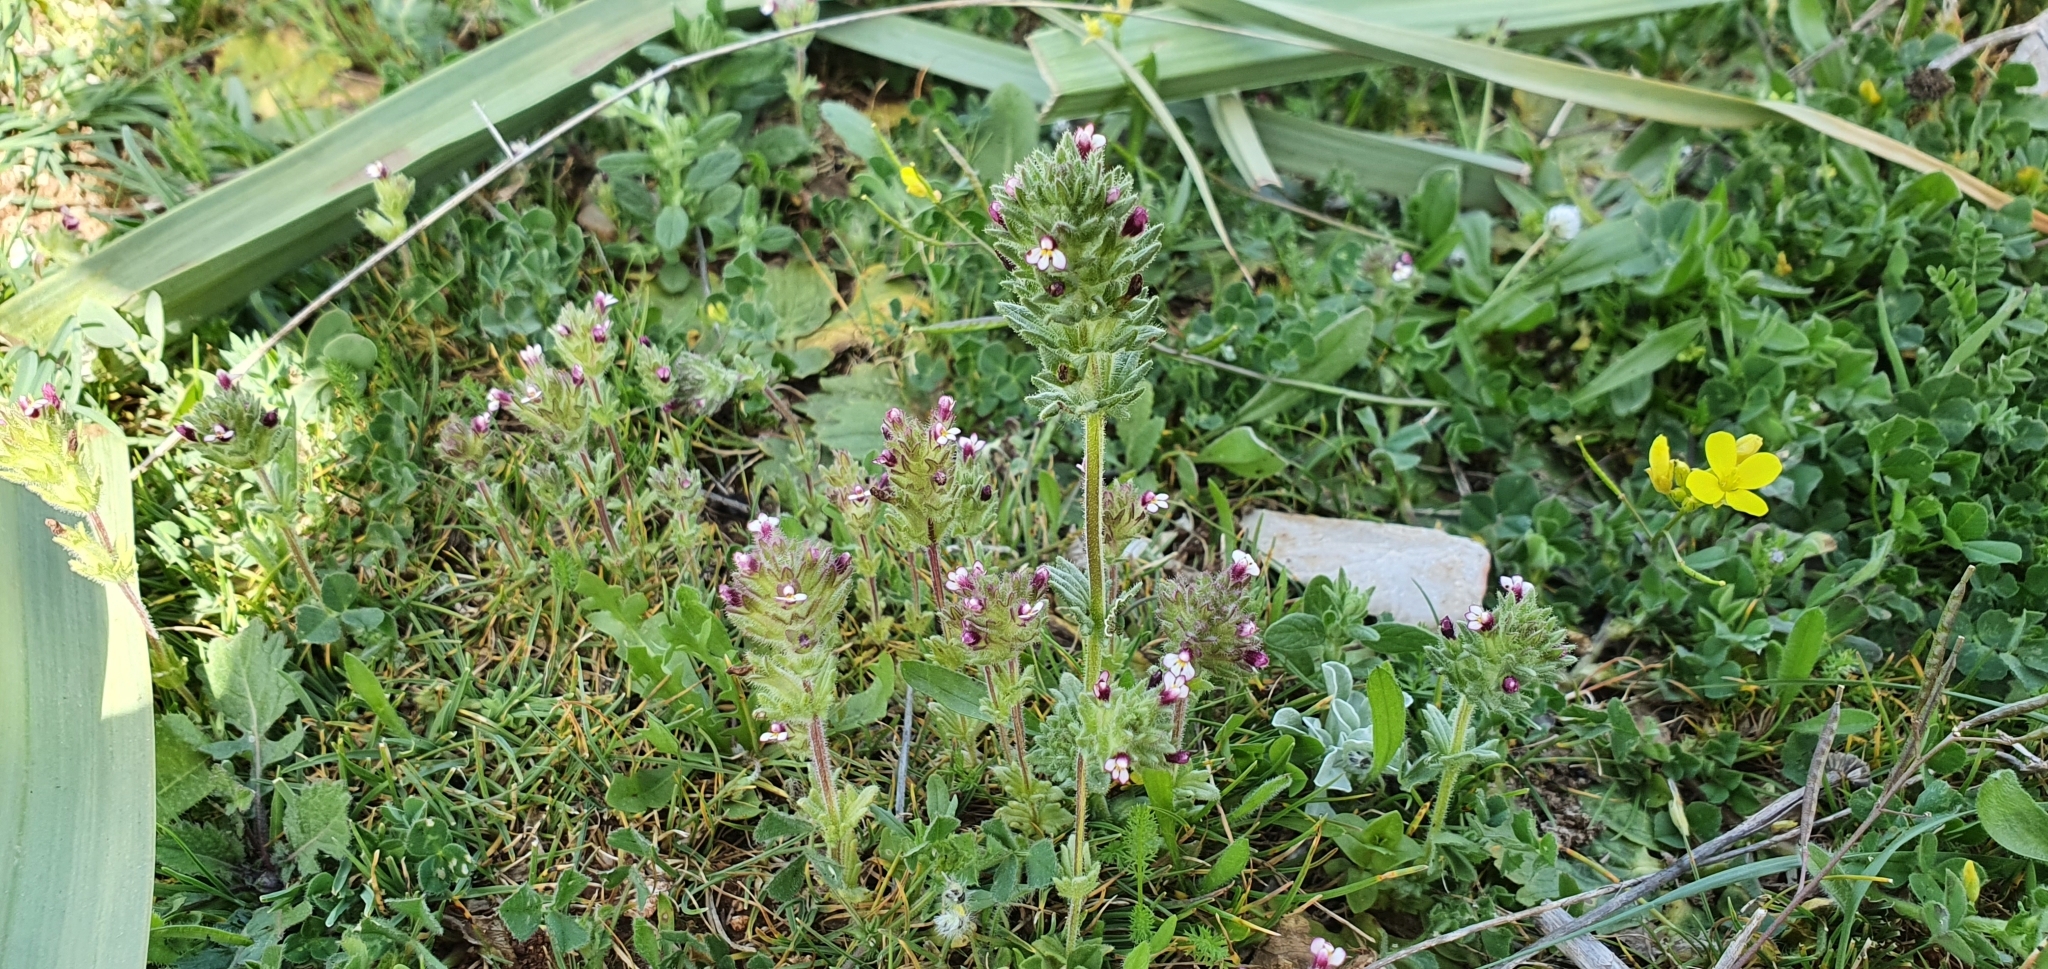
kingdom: Plantae
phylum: Tracheophyta
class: Magnoliopsida
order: Lamiales
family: Orobanchaceae
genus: Parentucellia
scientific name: Parentucellia latifolia
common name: Broadleaf glandweed
